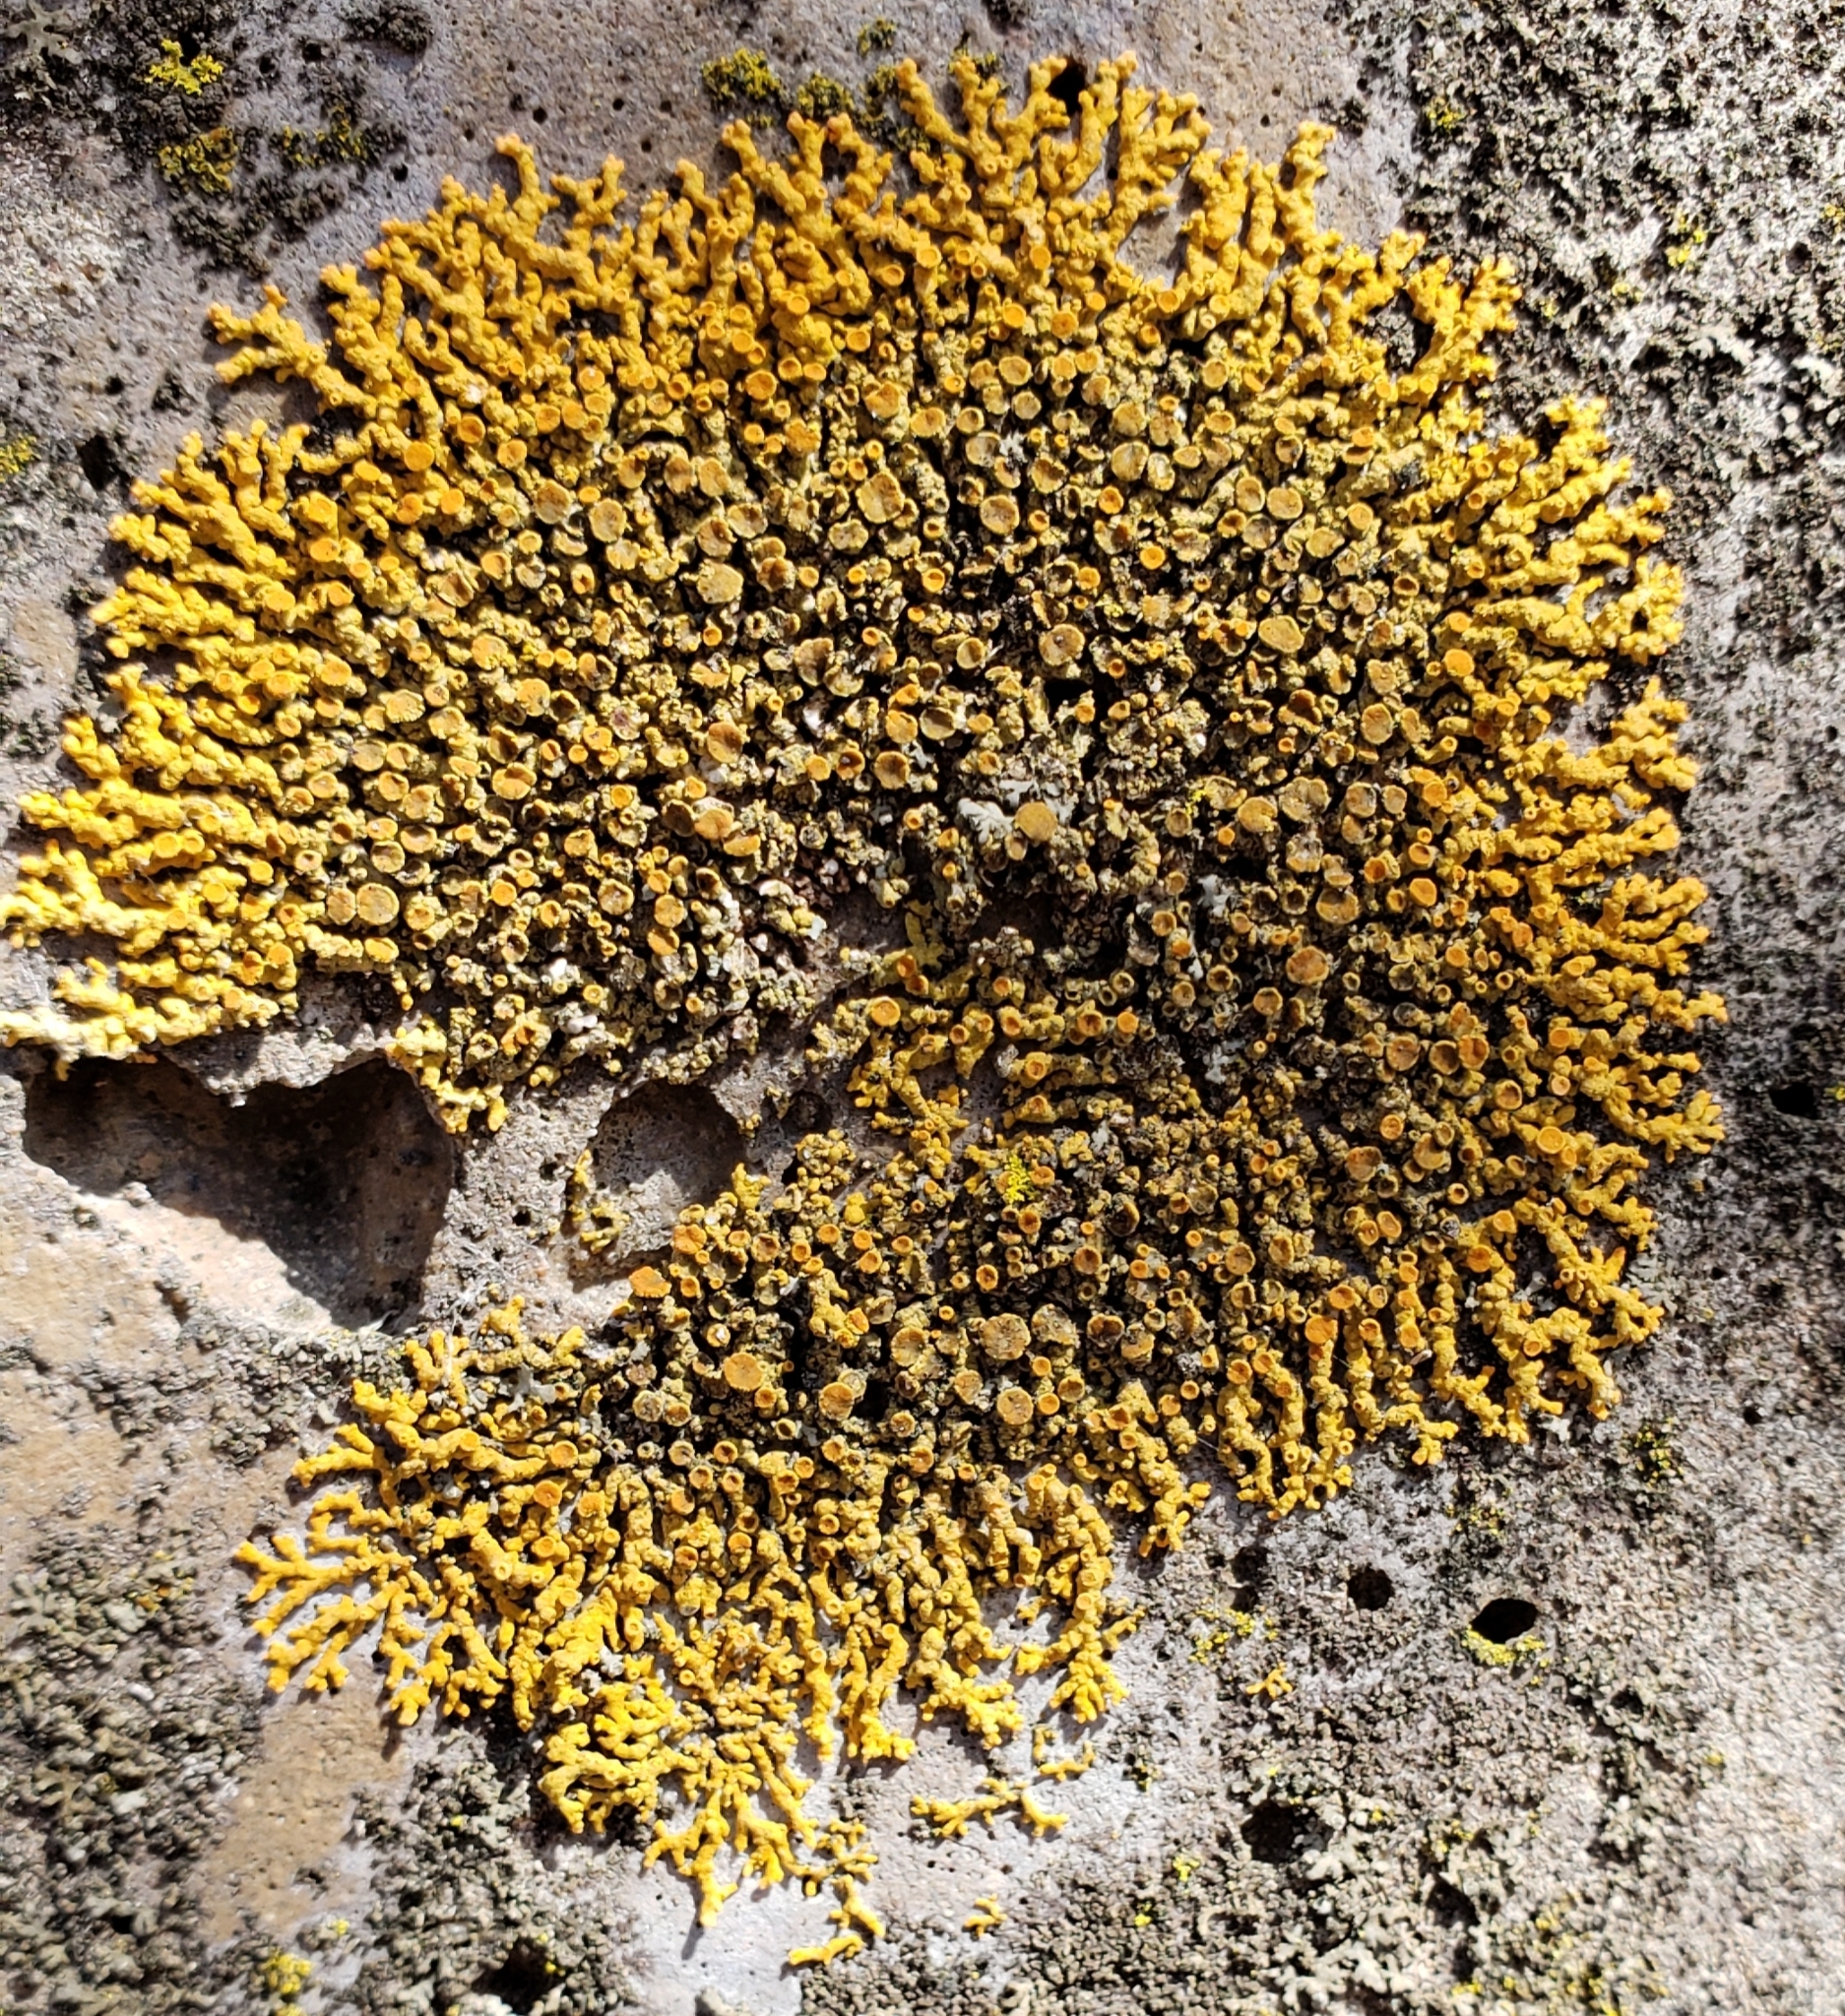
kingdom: Fungi
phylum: Ascomycota
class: Lecanoromycetes
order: Teloschistales
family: Teloschistaceae
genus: Xanthoria
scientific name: Xanthoria elegans
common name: Elegant sunburst lichen
